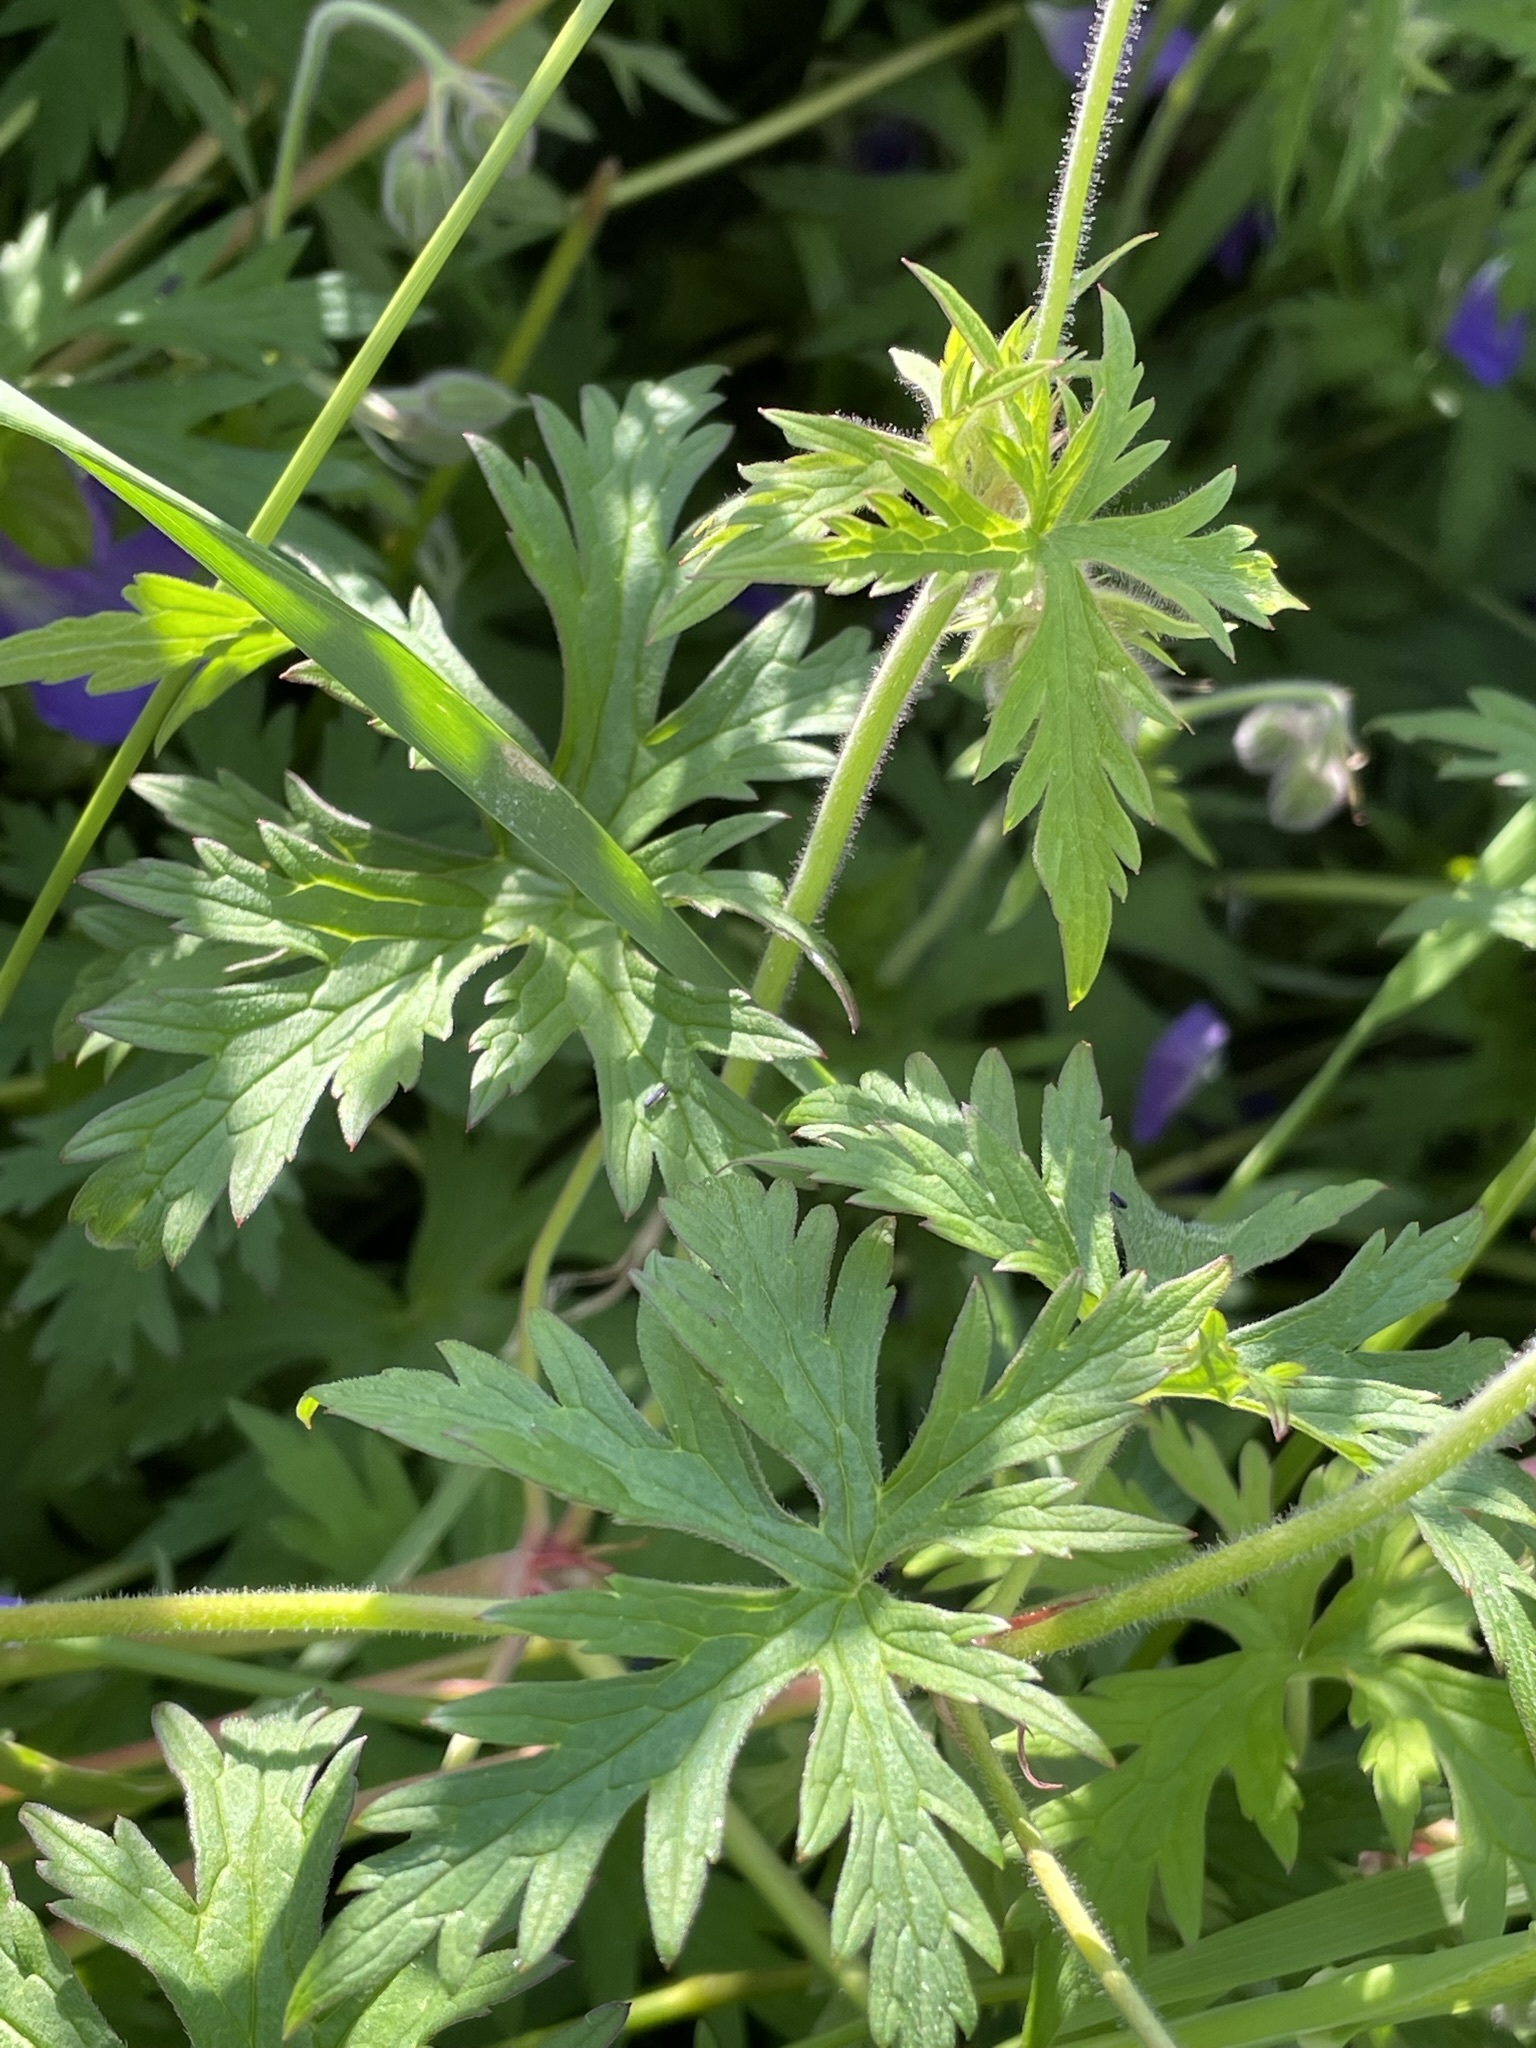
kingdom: Plantae
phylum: Tracheophyta
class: Magnoliopsida
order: Geraniales
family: Geraniaceae
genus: Geranium
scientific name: Geranium pratense
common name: Meadow crane's-bill
